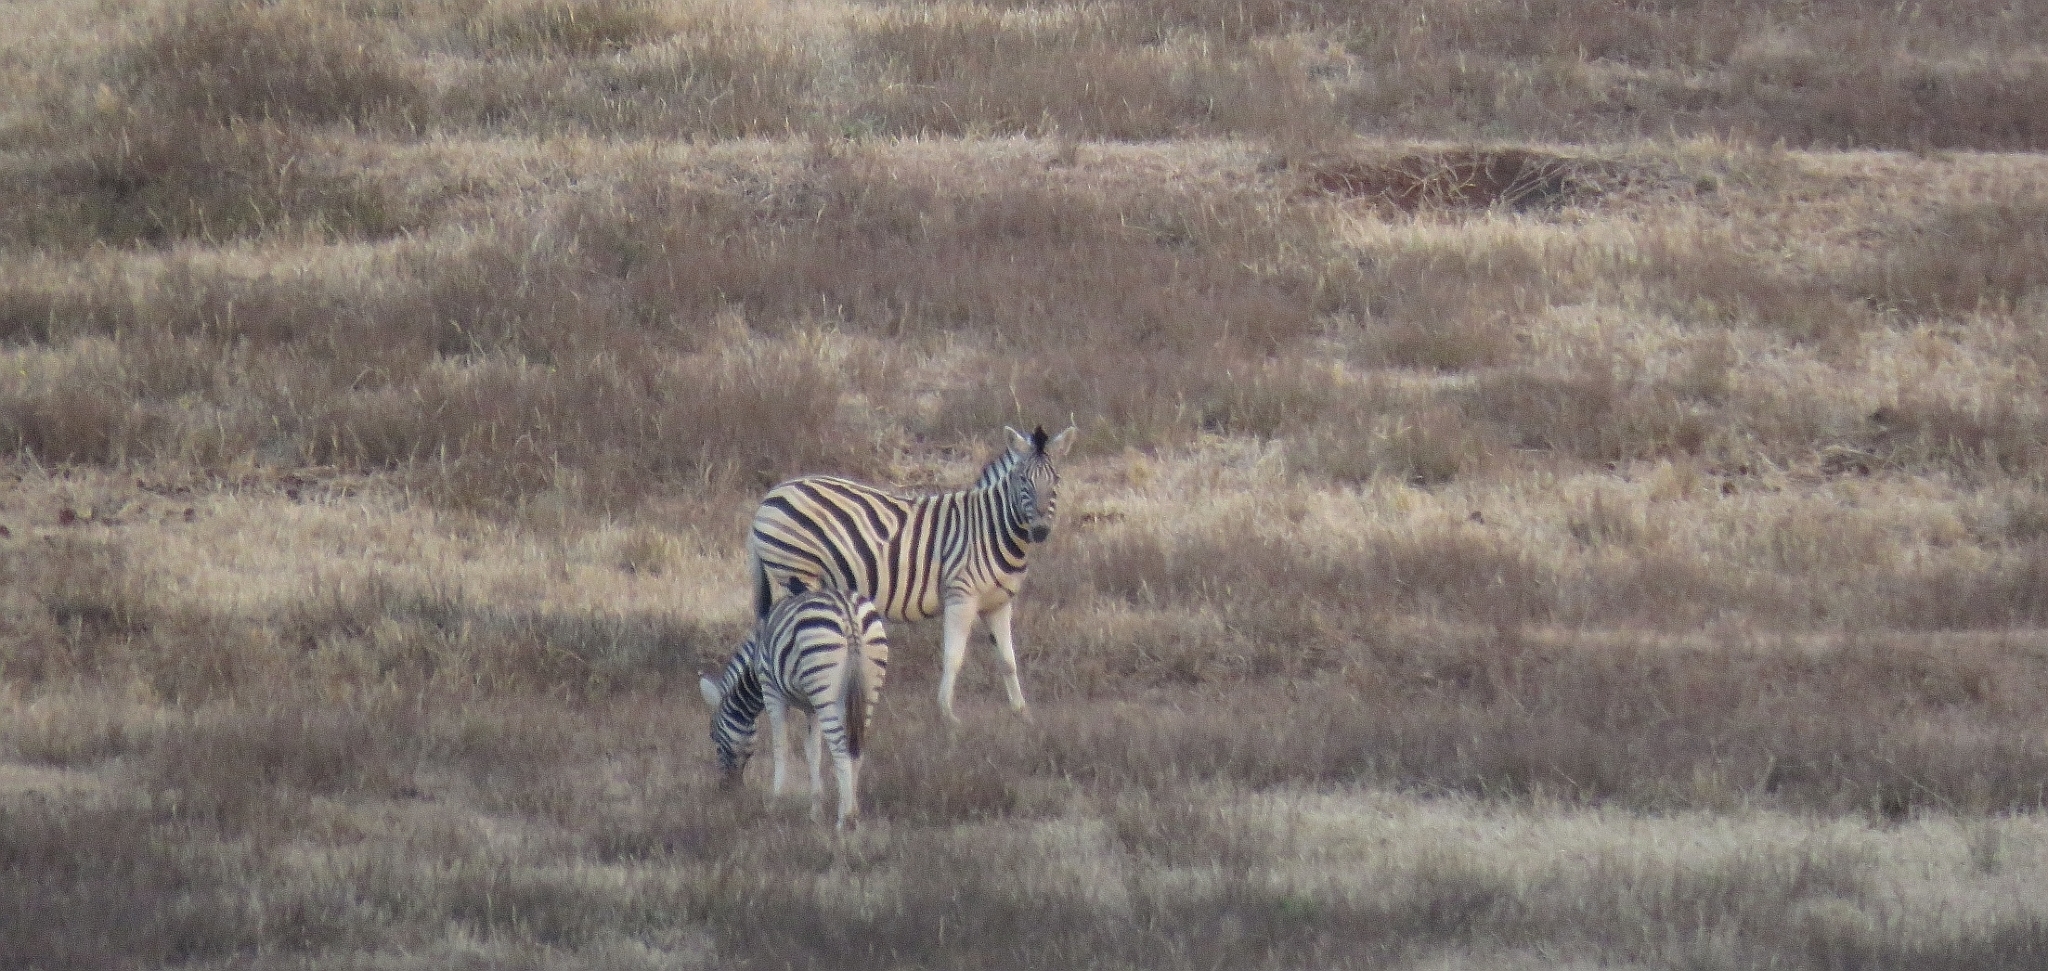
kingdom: Animalia
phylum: Chordata
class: Mammalia
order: Perissodactyla
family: Equidae
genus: Equus
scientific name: Equus quagga
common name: Plains zebra
